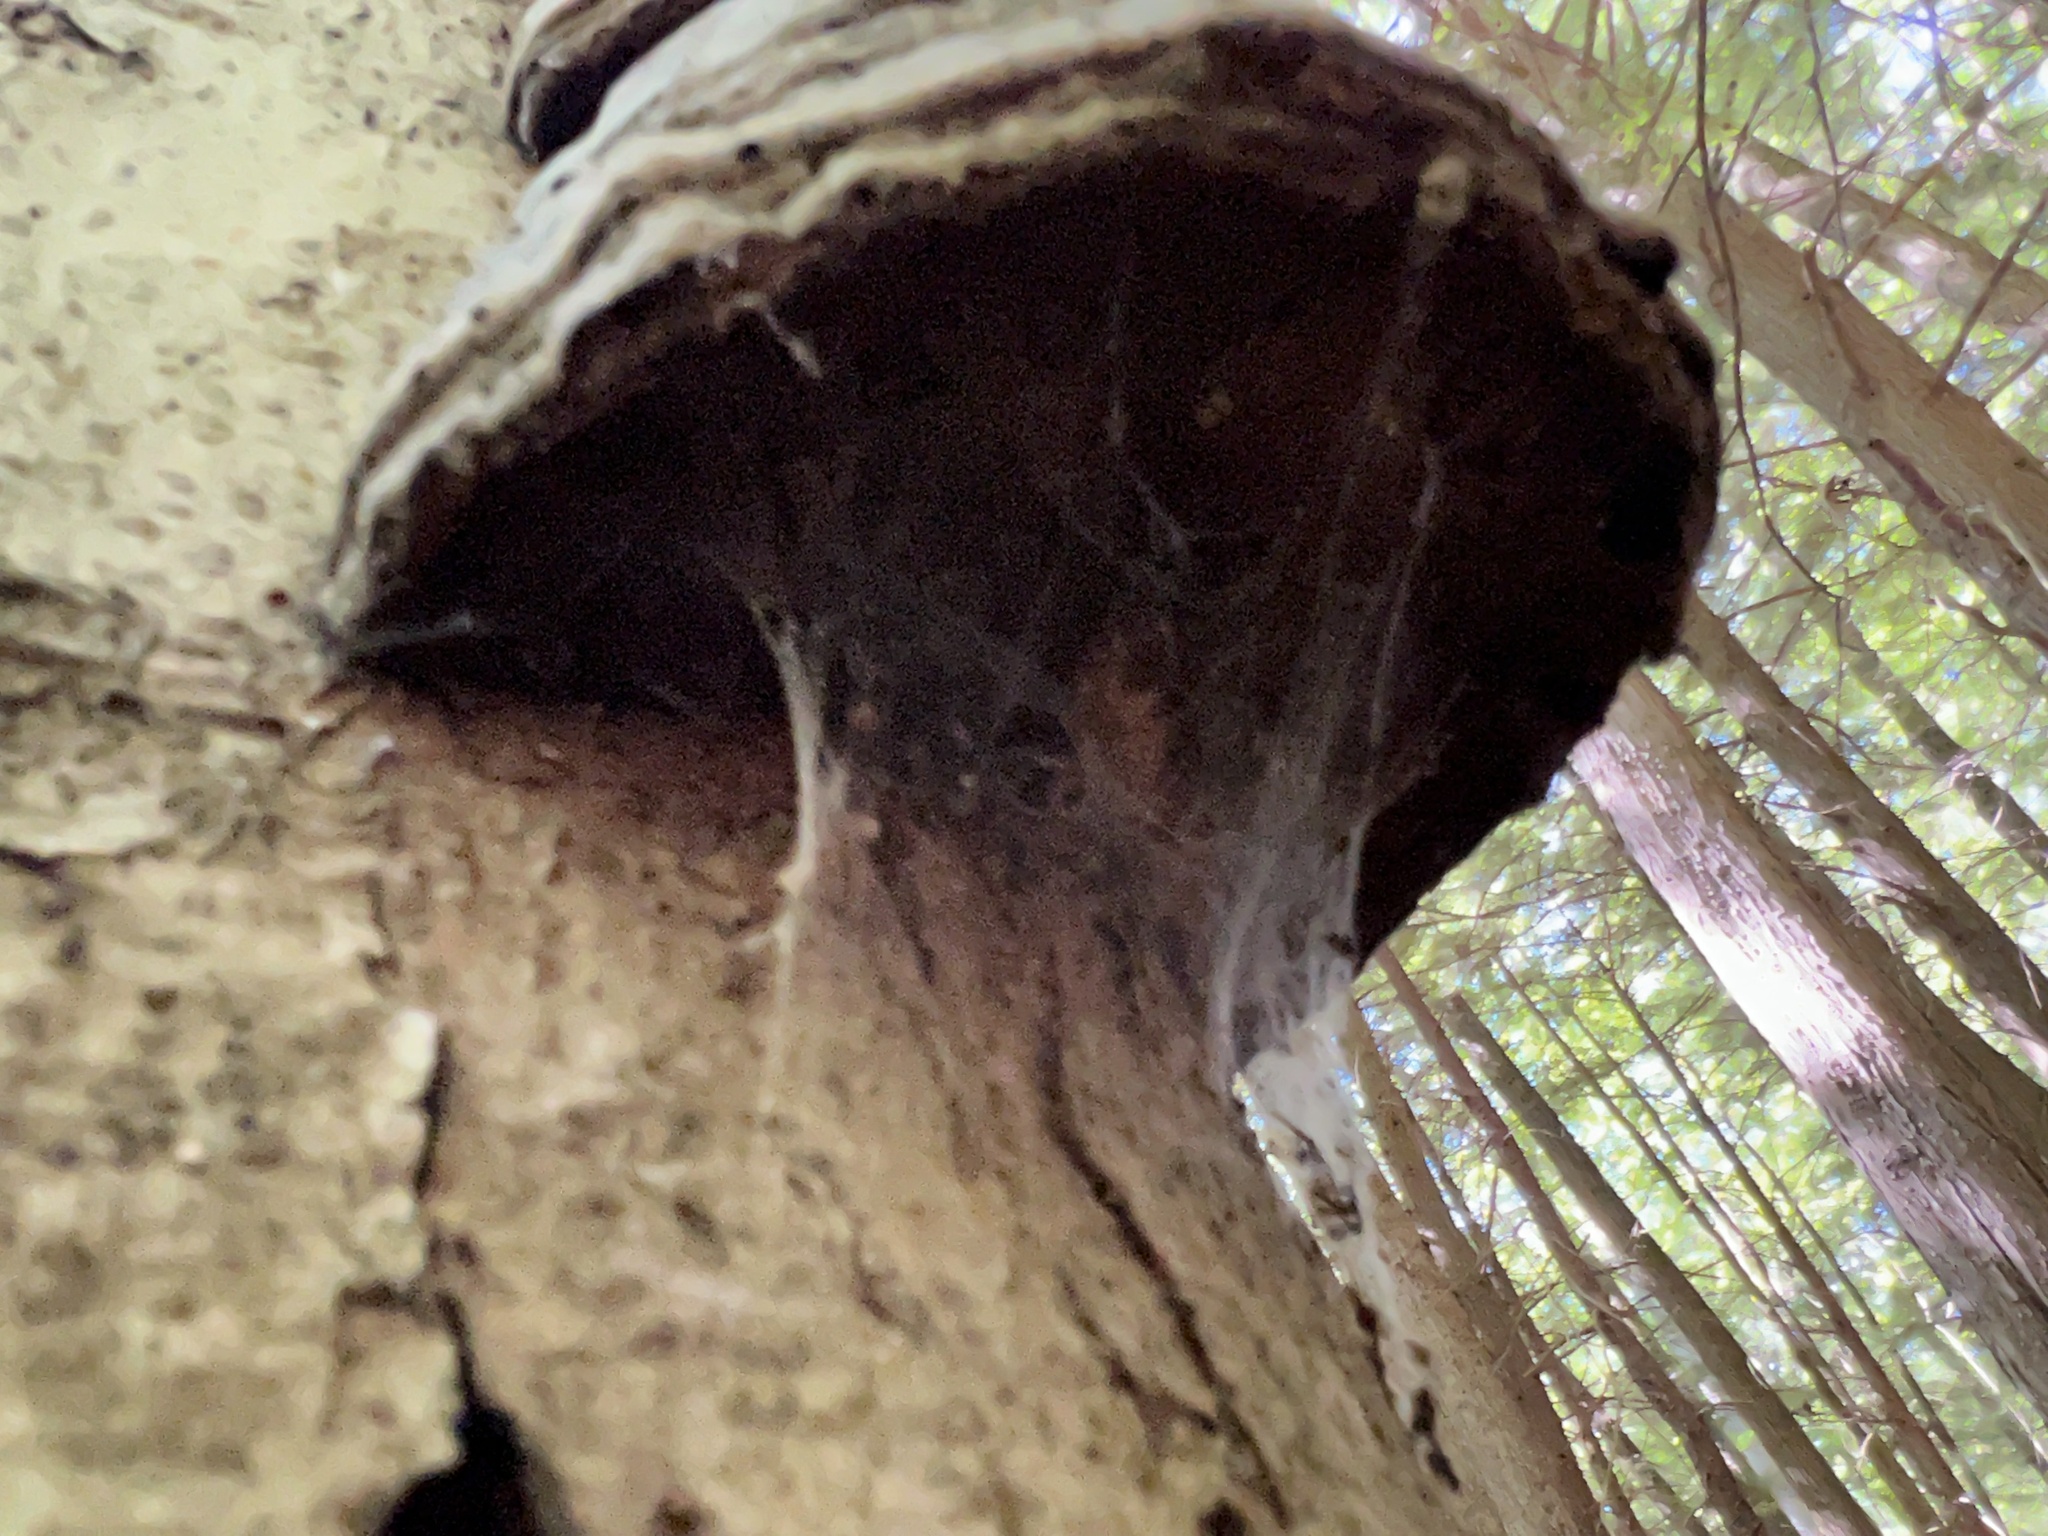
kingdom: Fungi
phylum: Basidiomycota
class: Agaricomycetes
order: Polyporales
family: Polyporaceae
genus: Fomes
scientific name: Fomes fomentarius
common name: Hoof fungus
